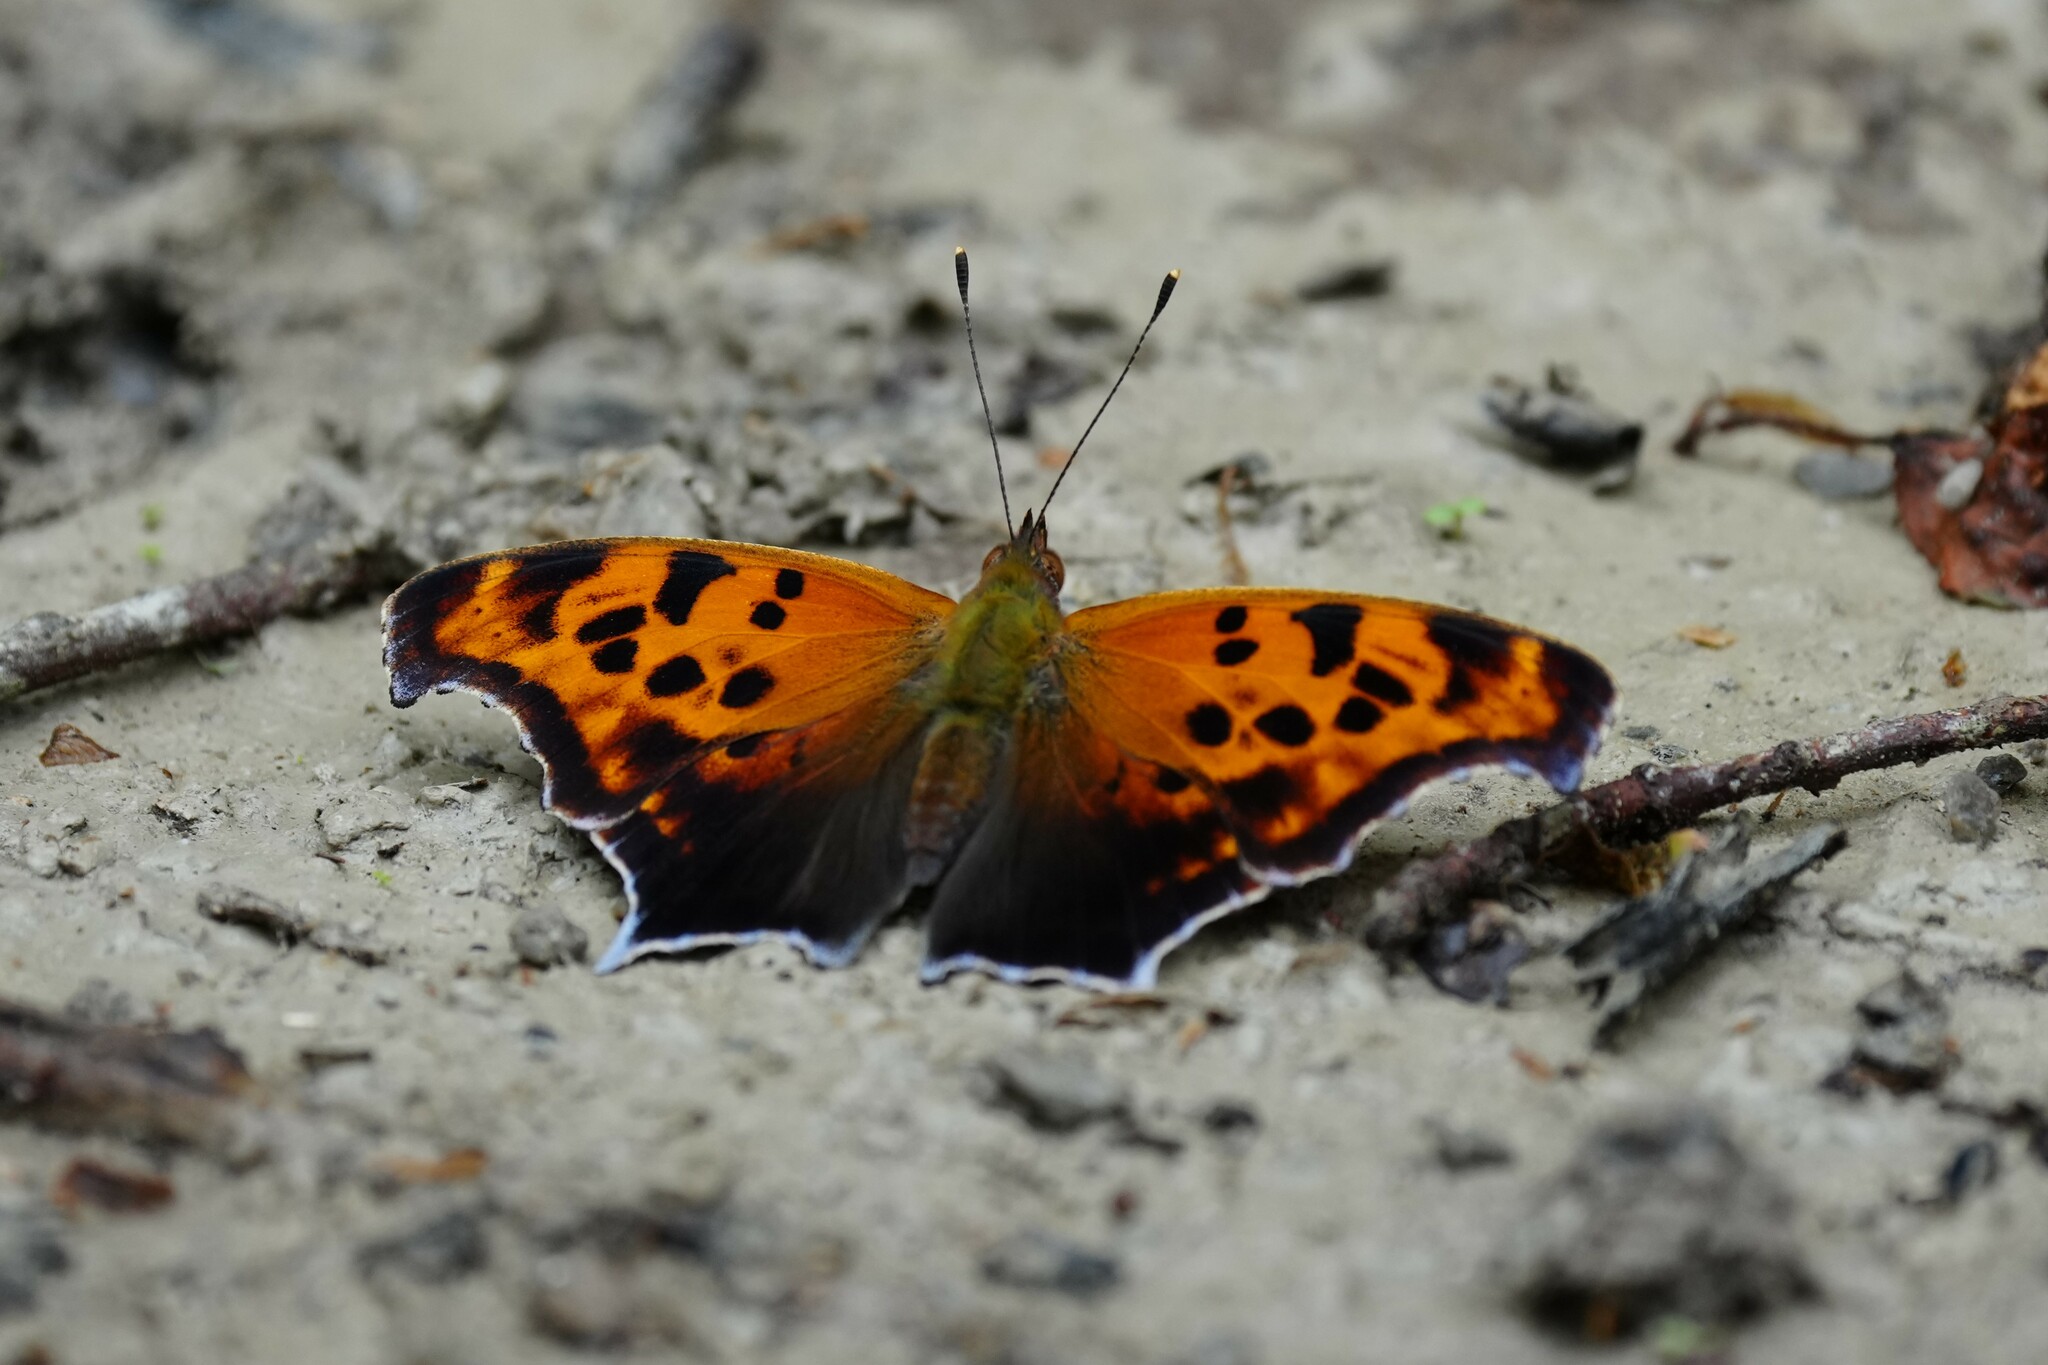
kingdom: Animalia
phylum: Arthropoda
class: Insecta
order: Lepidoptera
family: Nymphalidae
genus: Polygonia
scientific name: Polygonia interrogationis
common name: Question mark
